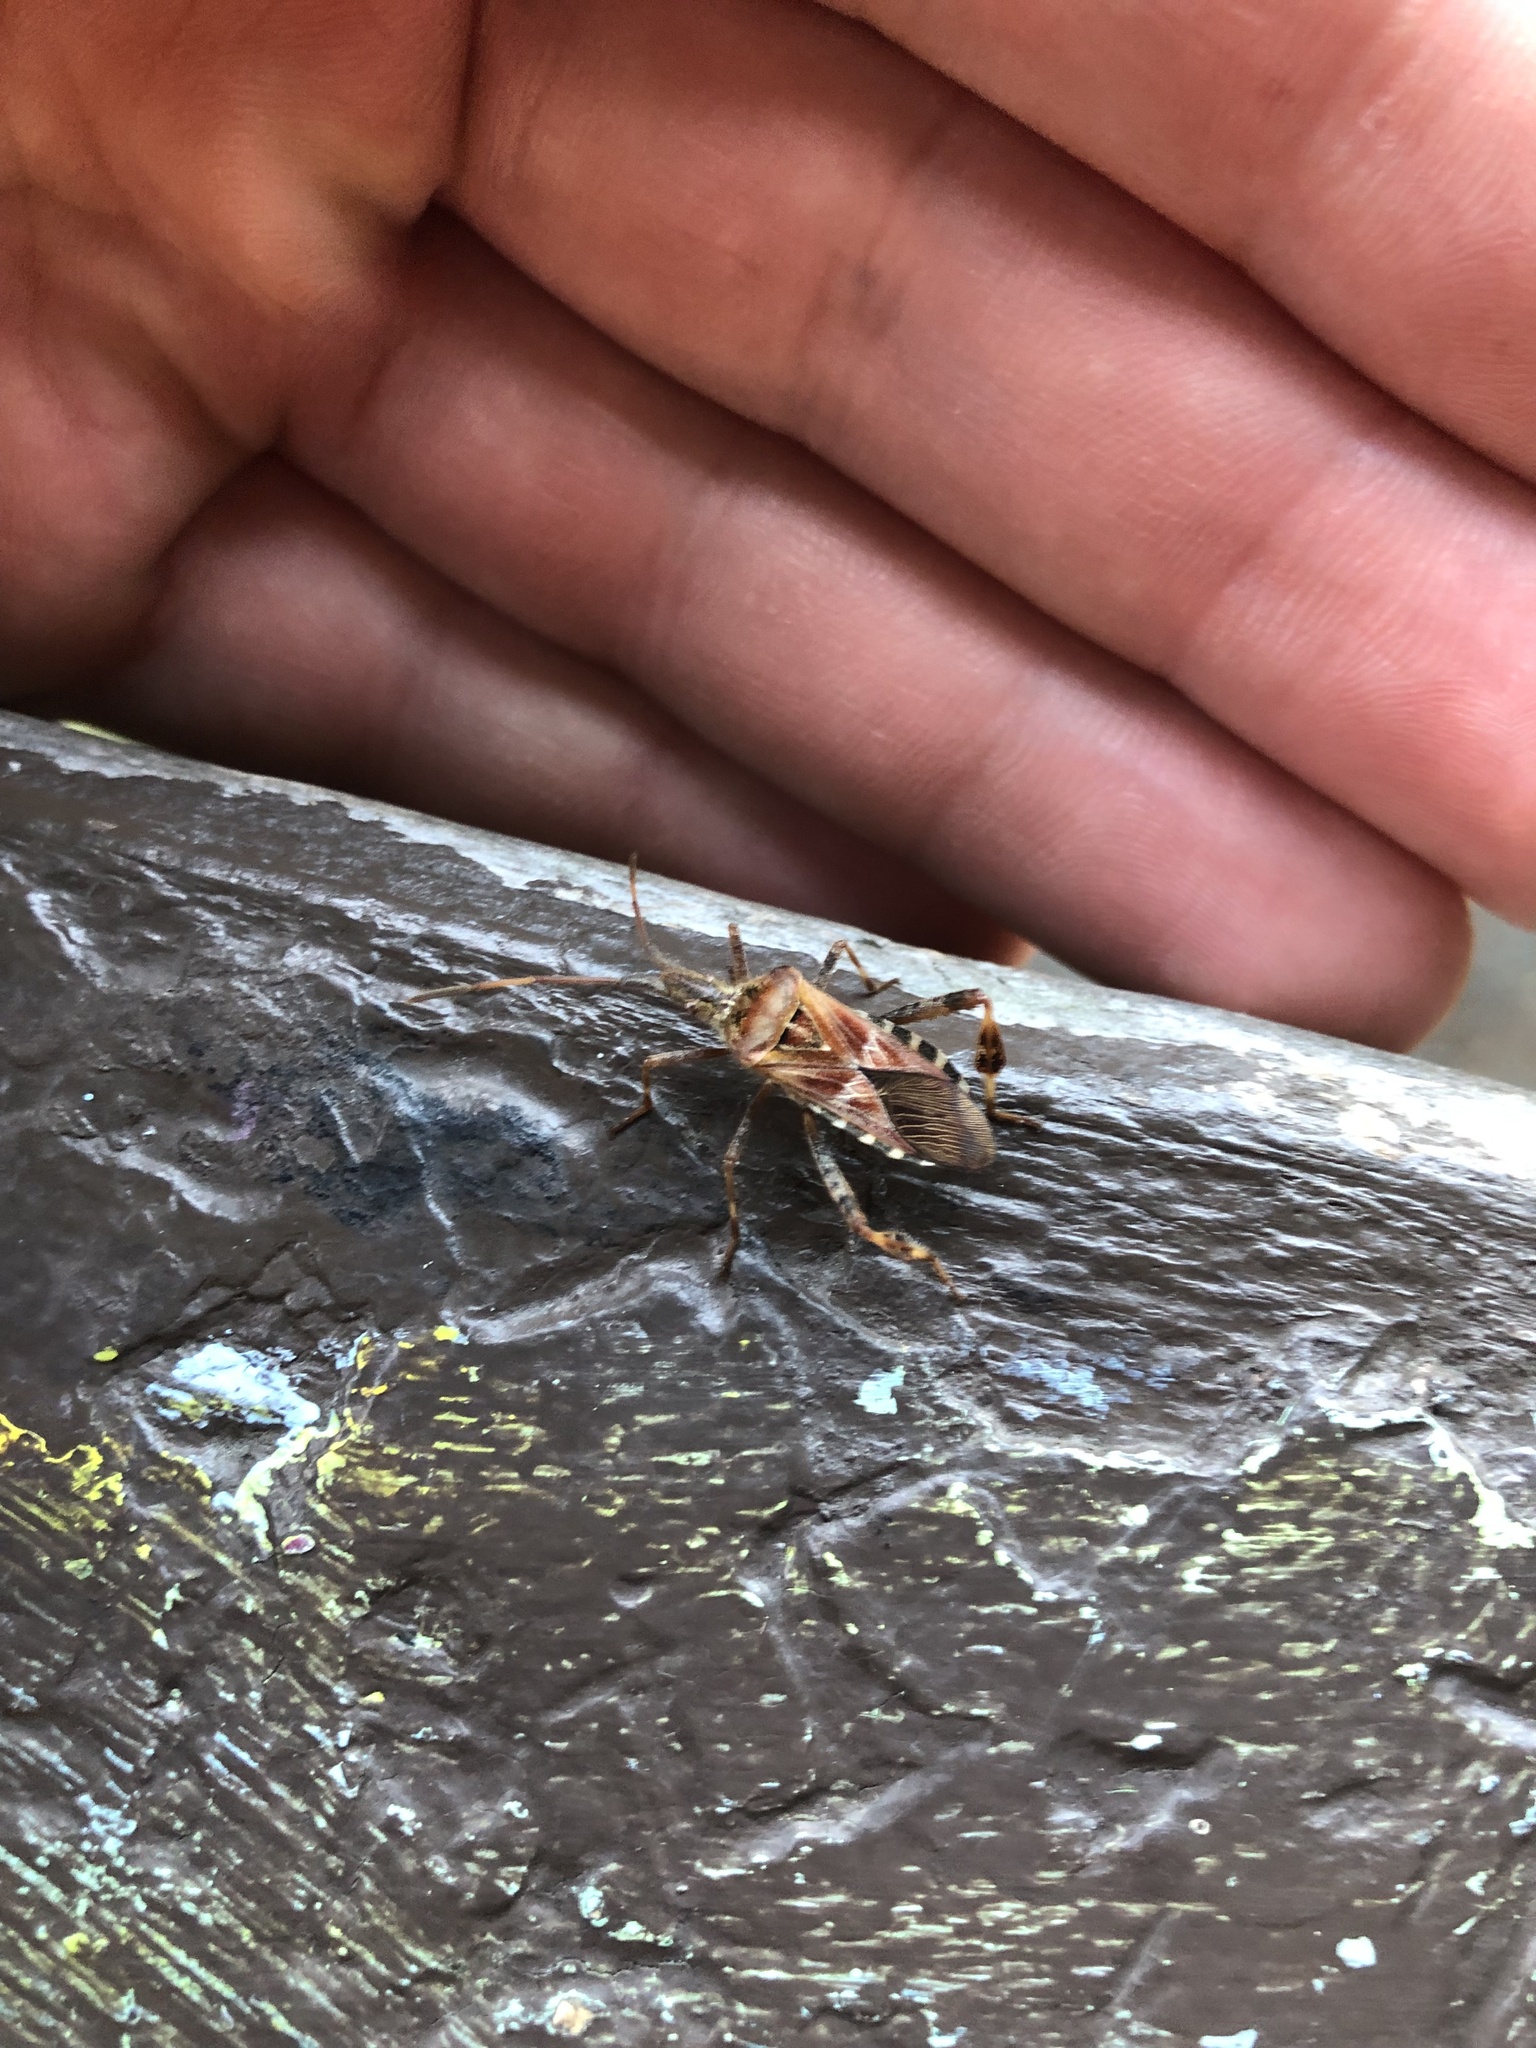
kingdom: Animalia
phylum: Arthropoda
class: Insecta
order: Hemiptera
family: Coreidae
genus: Leptoglossus
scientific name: Leptoglossus occidentalis
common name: Western conifer-seed bug
